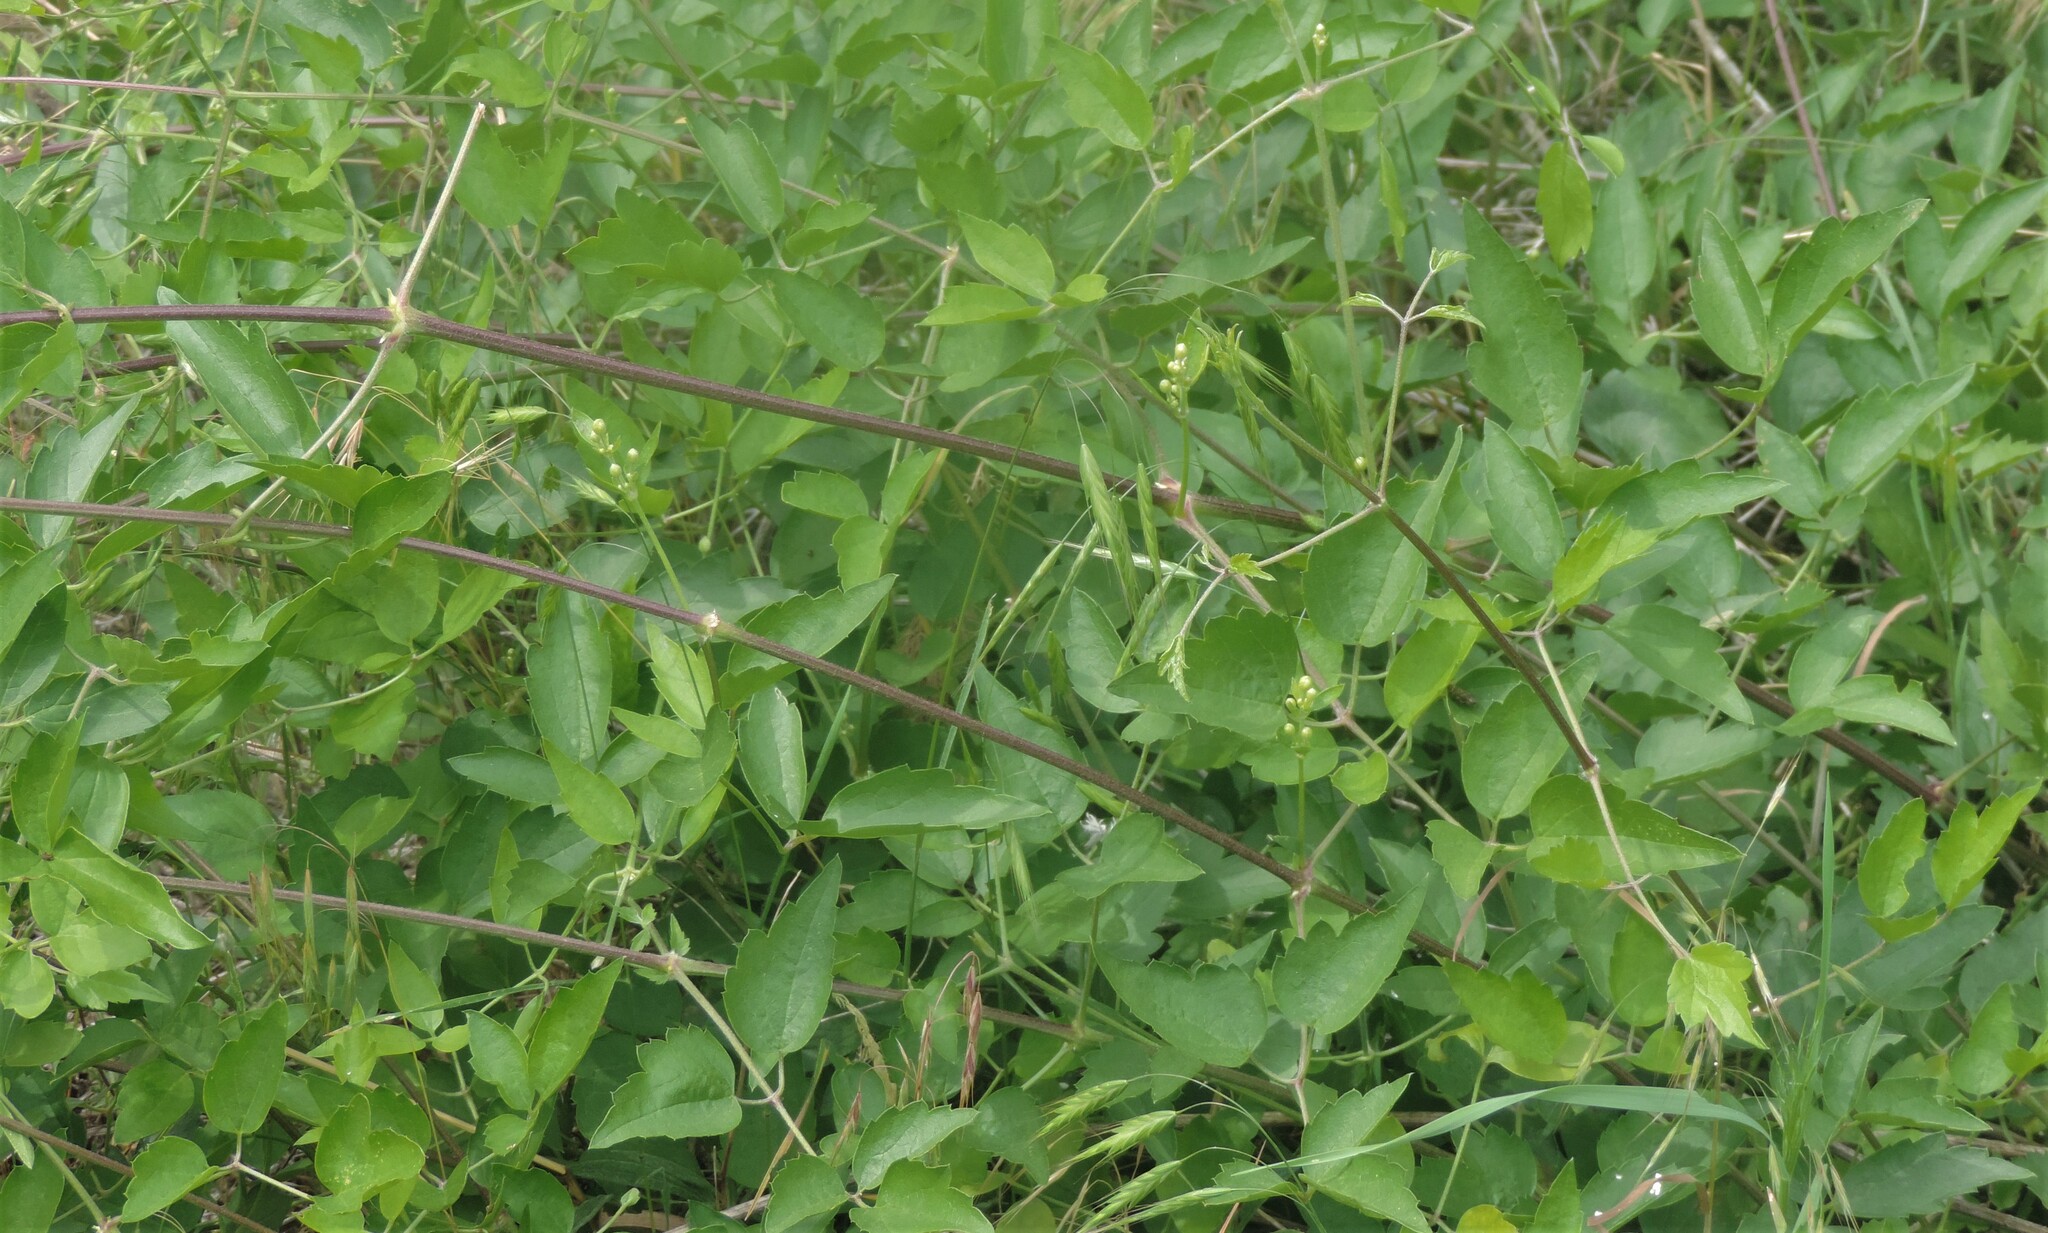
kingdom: Plantae
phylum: Tracheophyta
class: Magnoliopsida
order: Ranunculales
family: Ranunculaceae
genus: Clematis
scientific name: Clematis ligusticifolia
